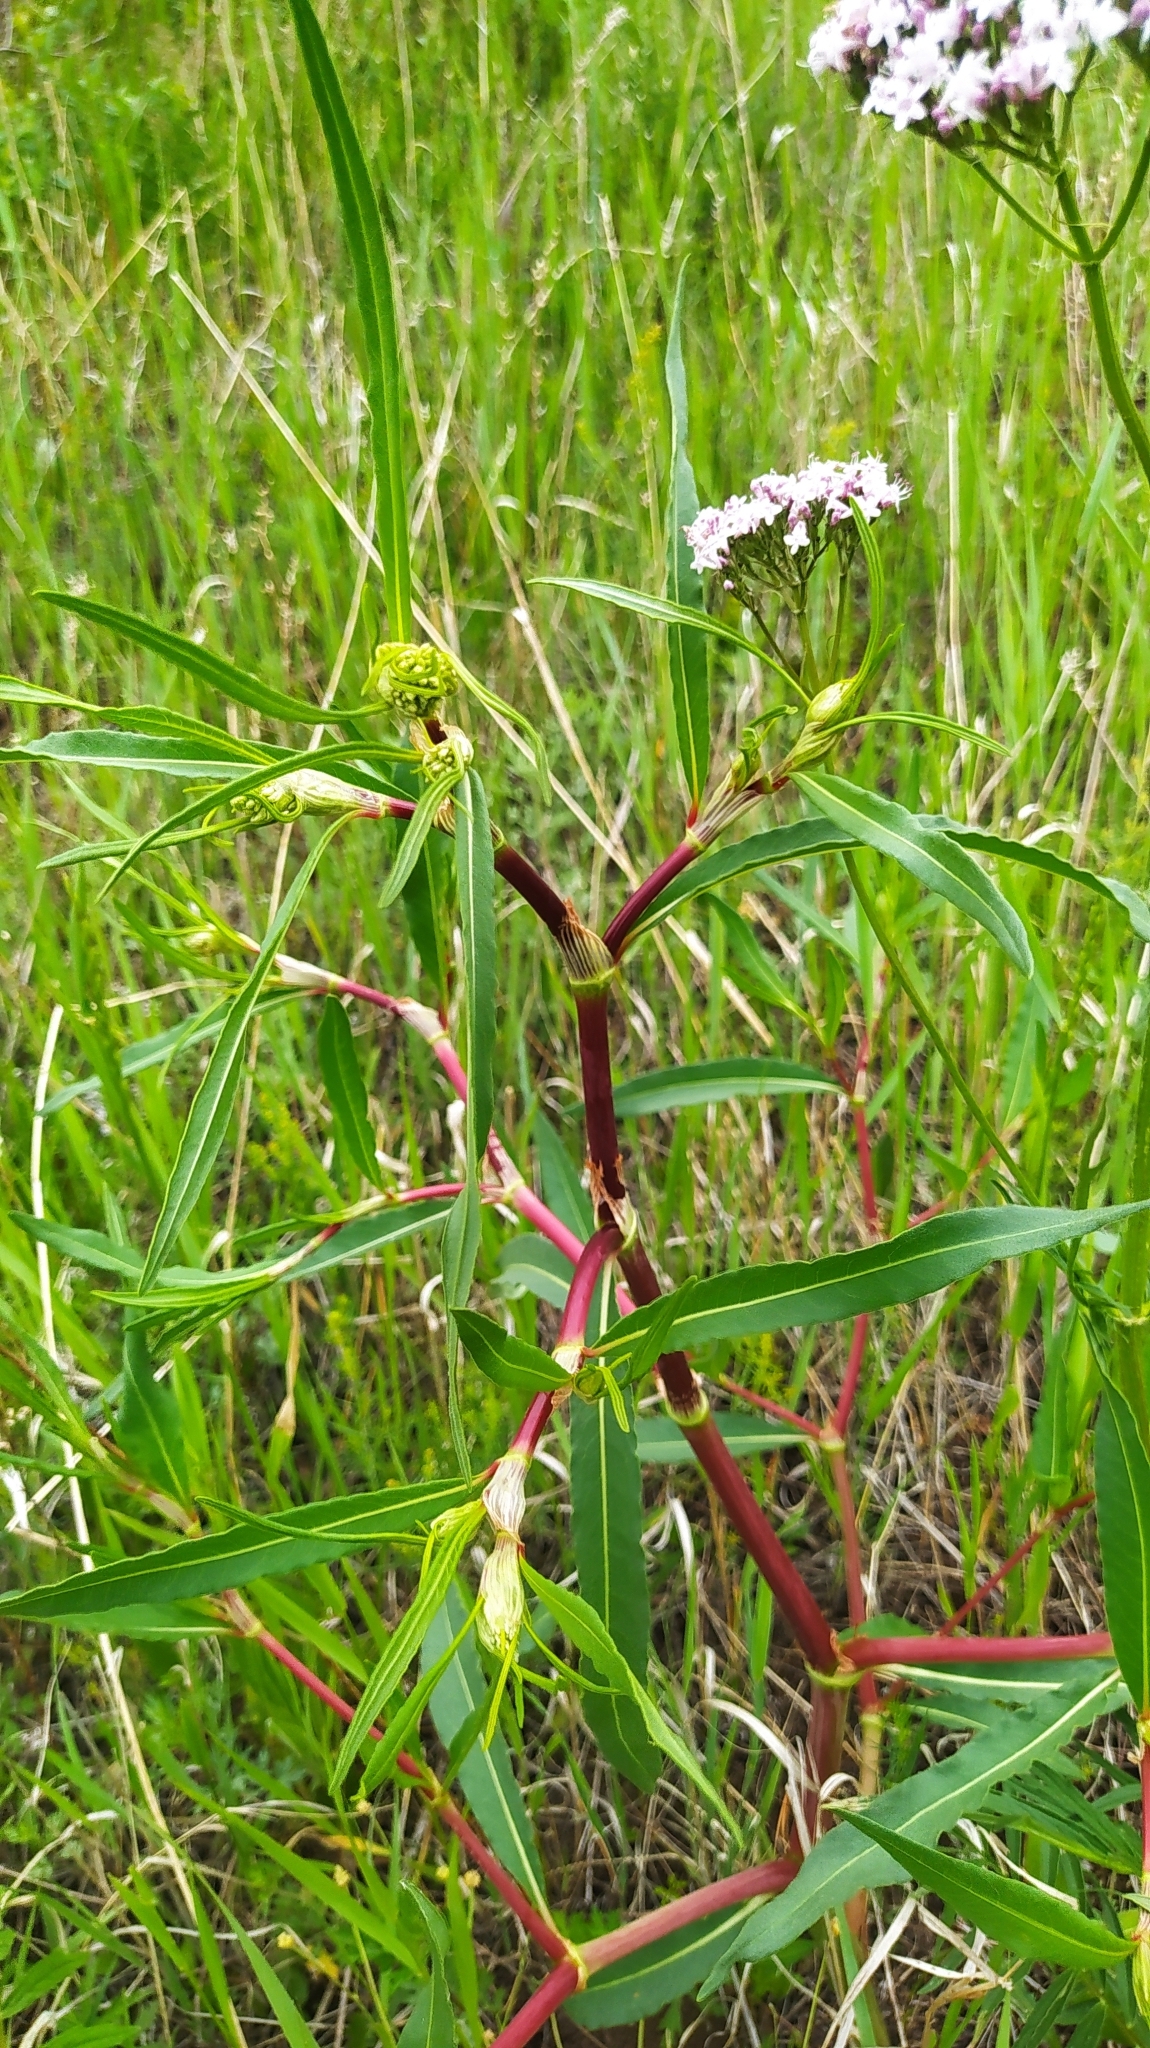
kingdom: Plantae
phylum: Tracheophyta
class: Magnoliopsida
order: Caryophyllales
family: Polygonaceae
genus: Koenigia
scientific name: Koenigia divaricata
